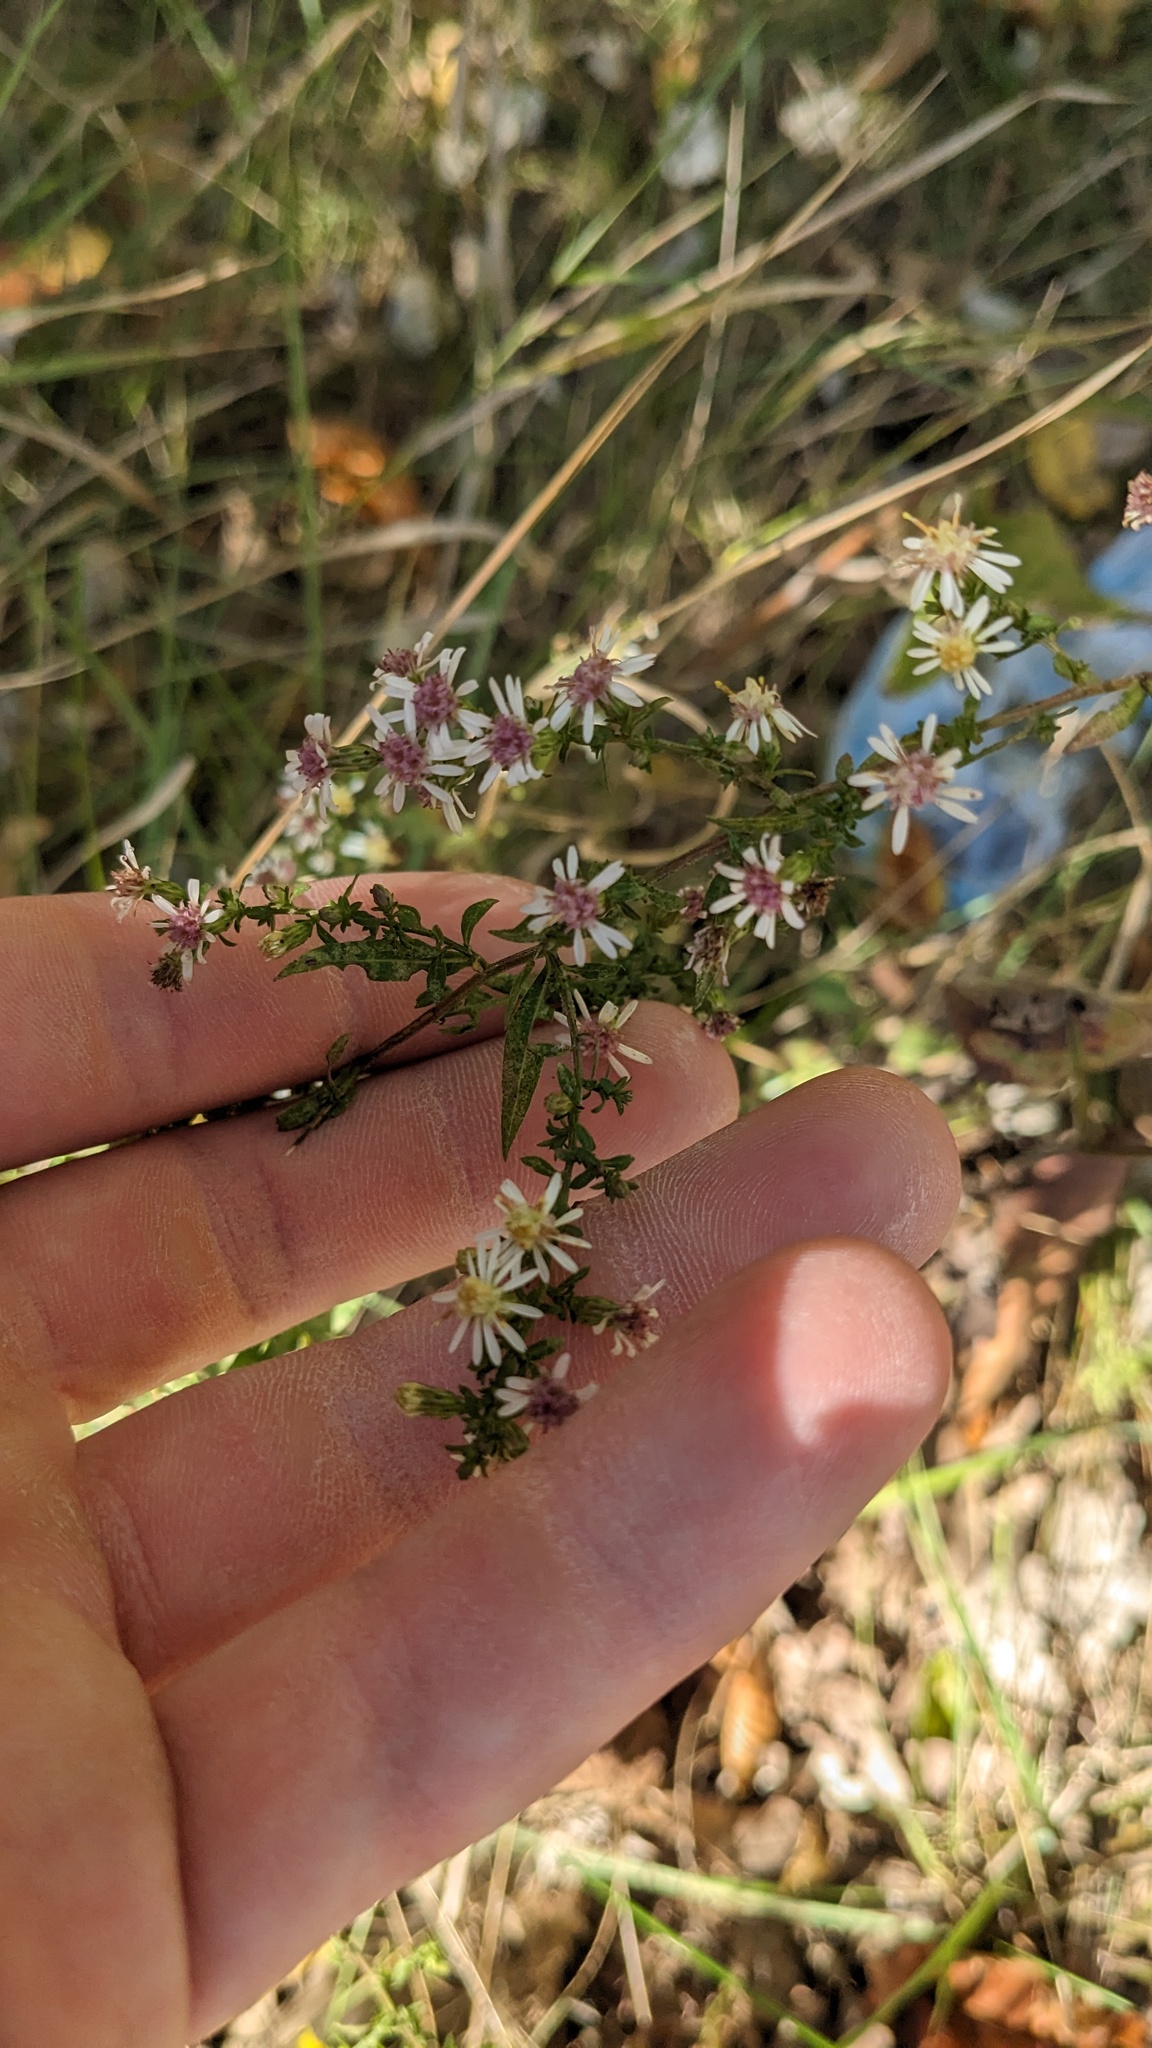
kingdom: Plantae
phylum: Tracheophyta
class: Magnoliopsida
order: Asterales
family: Asteraceae
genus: Symphyotrichum
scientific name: Symphyotrichum lateriflorum
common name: Calico aster
